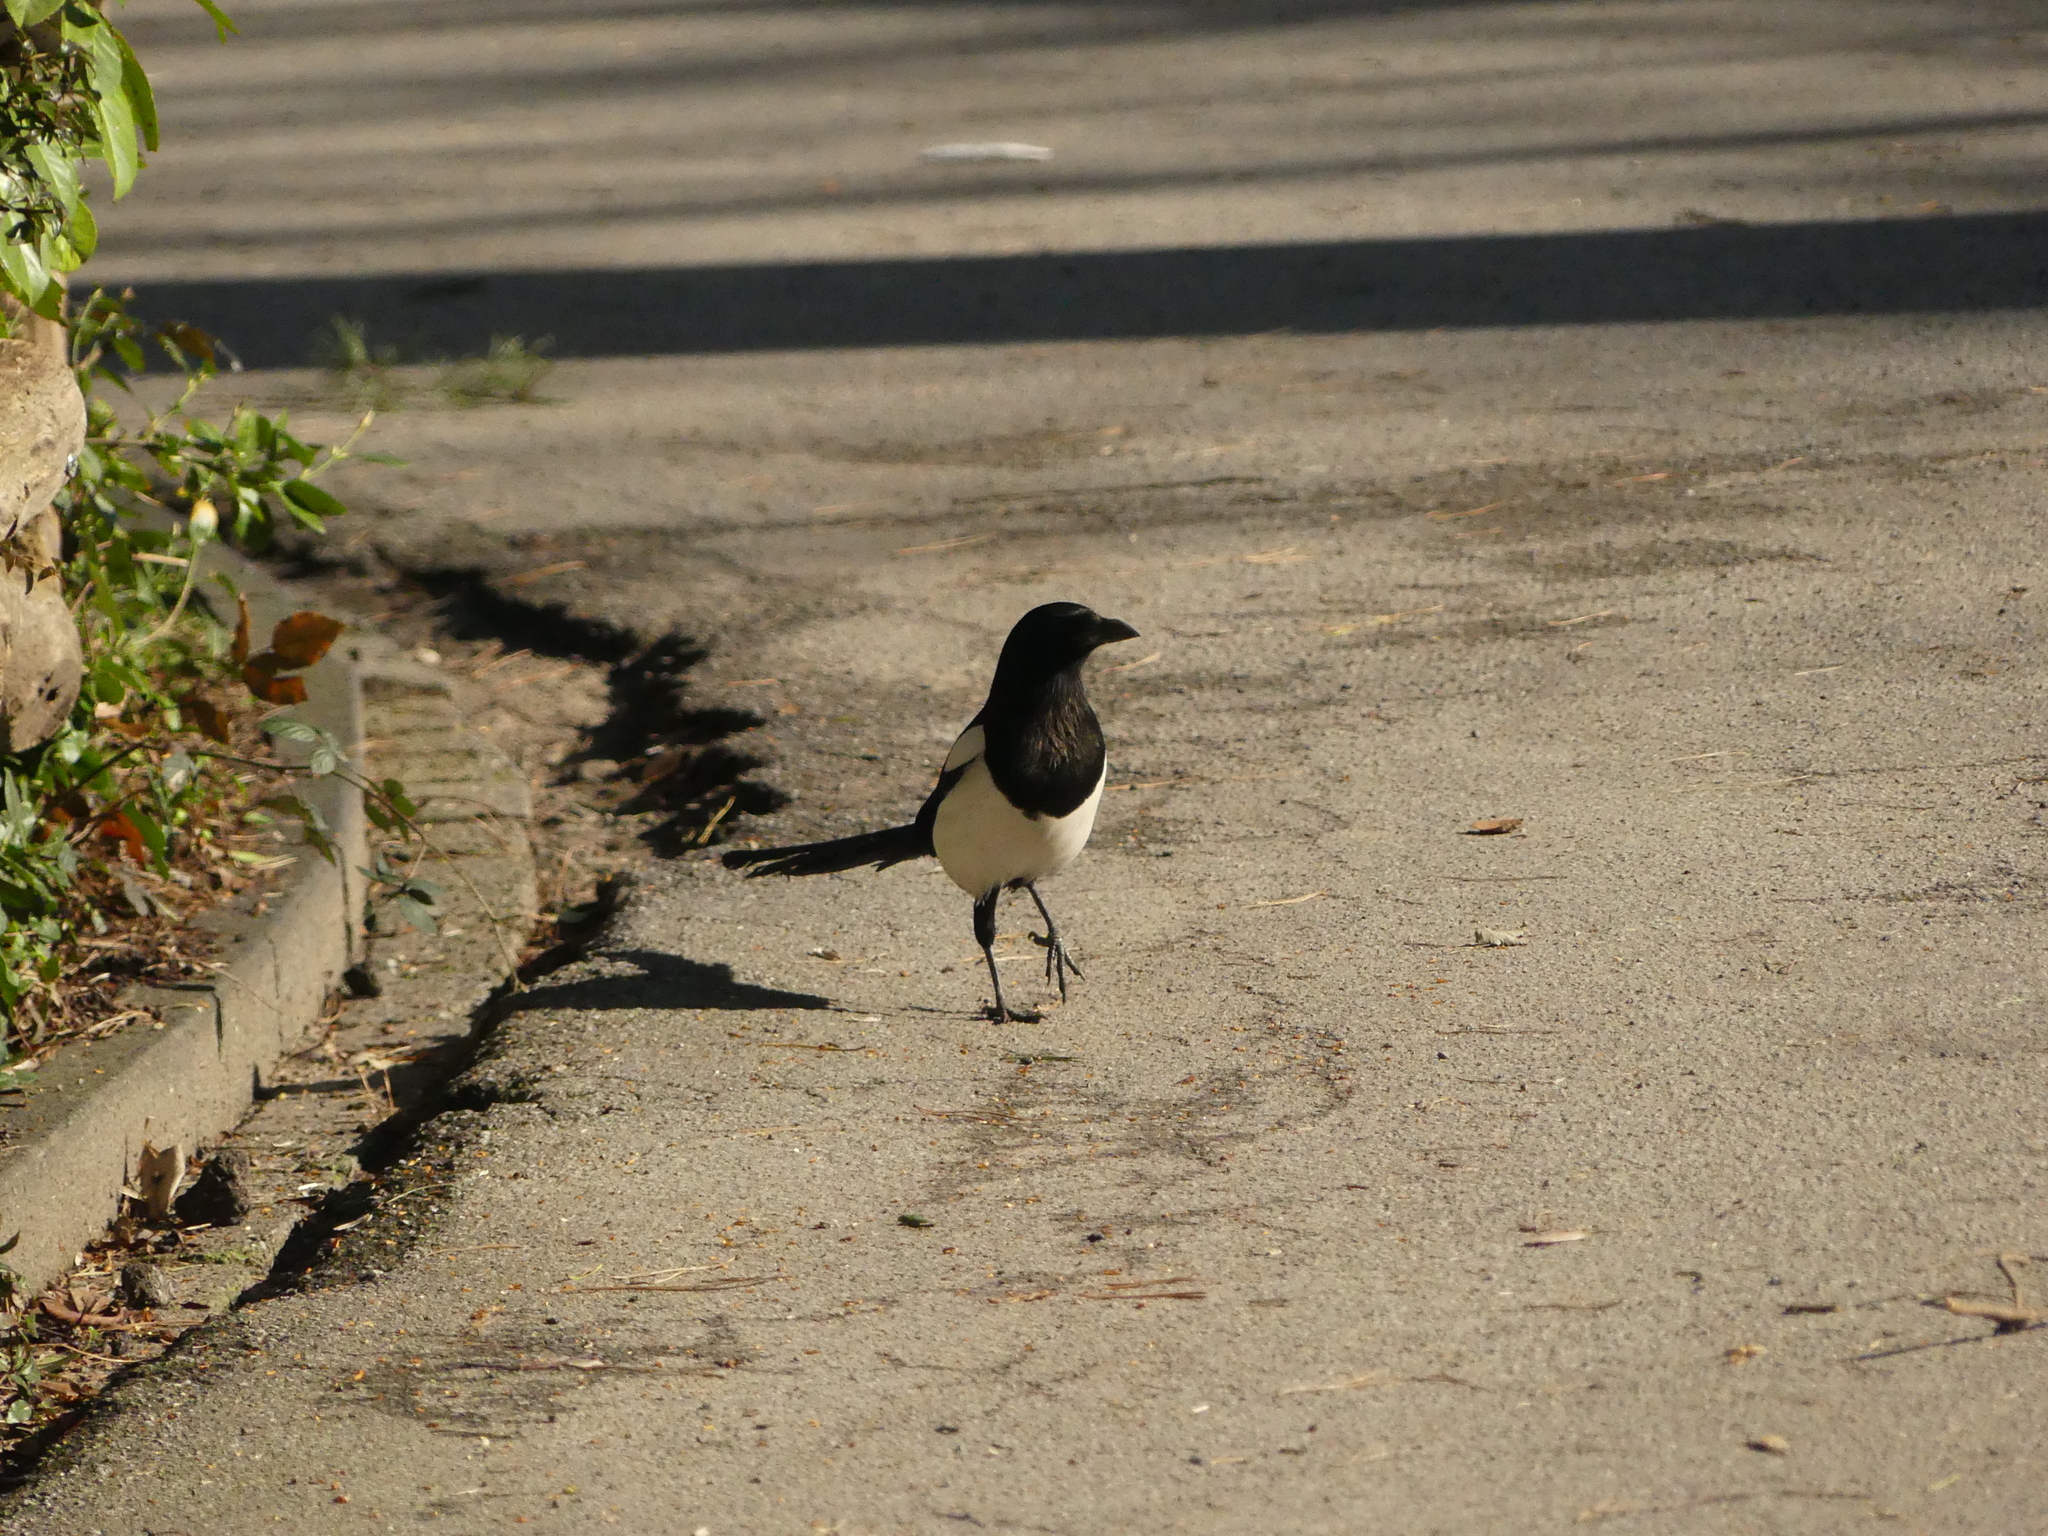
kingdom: Animalia
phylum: Chordata
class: Aves
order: Passeriformes
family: Corvidae
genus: Pica
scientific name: Pica pica
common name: Eurasian magpie
